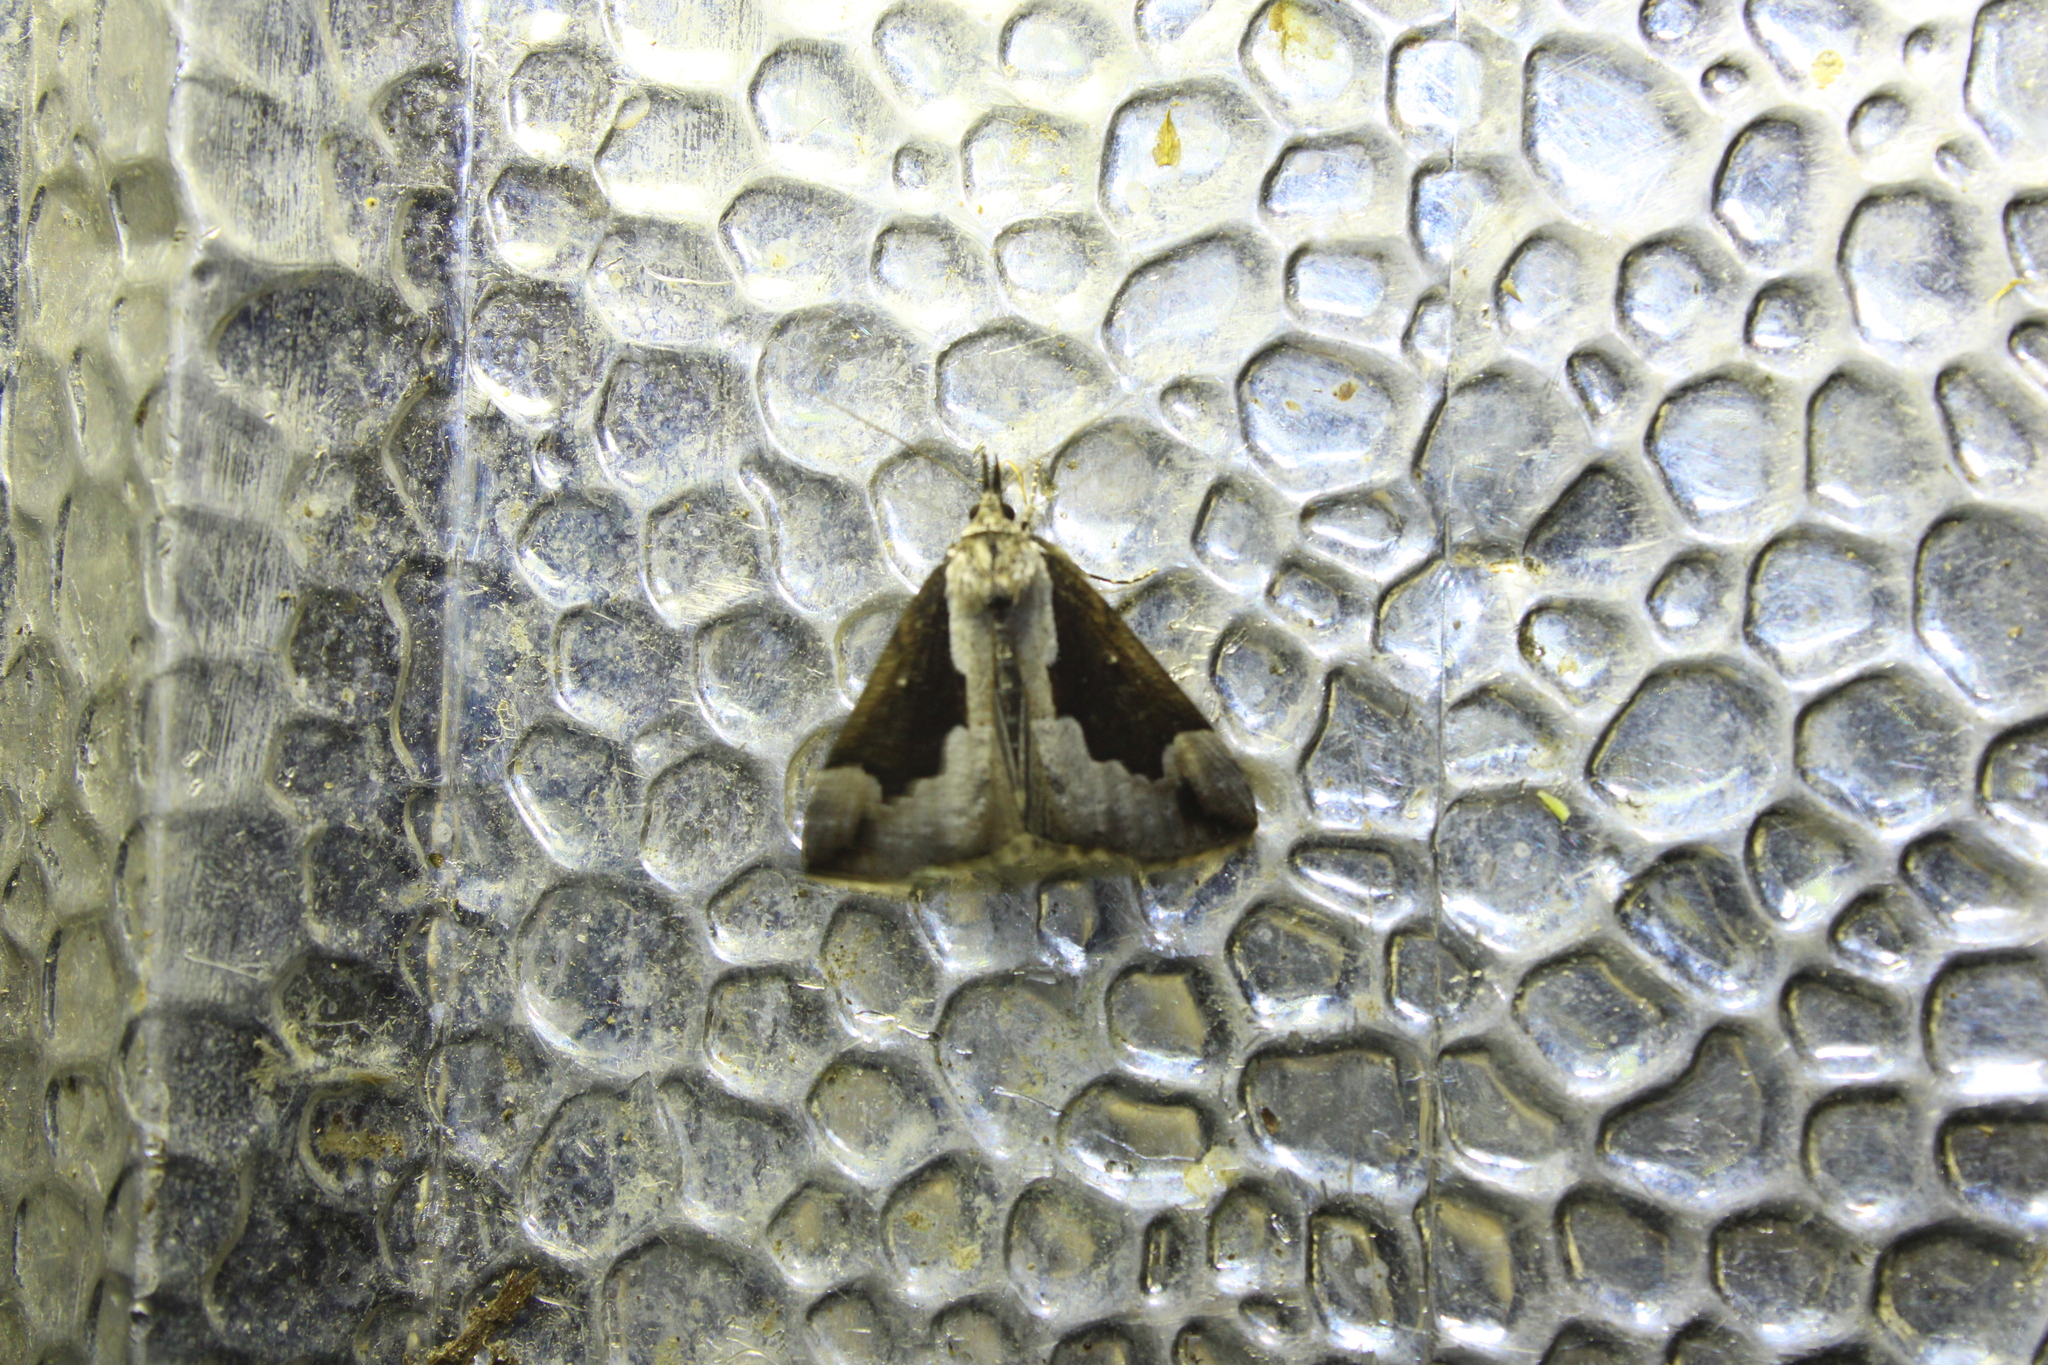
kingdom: Animalia
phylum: Arthropoda
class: Insecta
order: Lepidoptera
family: Erebidae
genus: Hypena
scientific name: Hypena baltimoralis
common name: Baltimore snout
